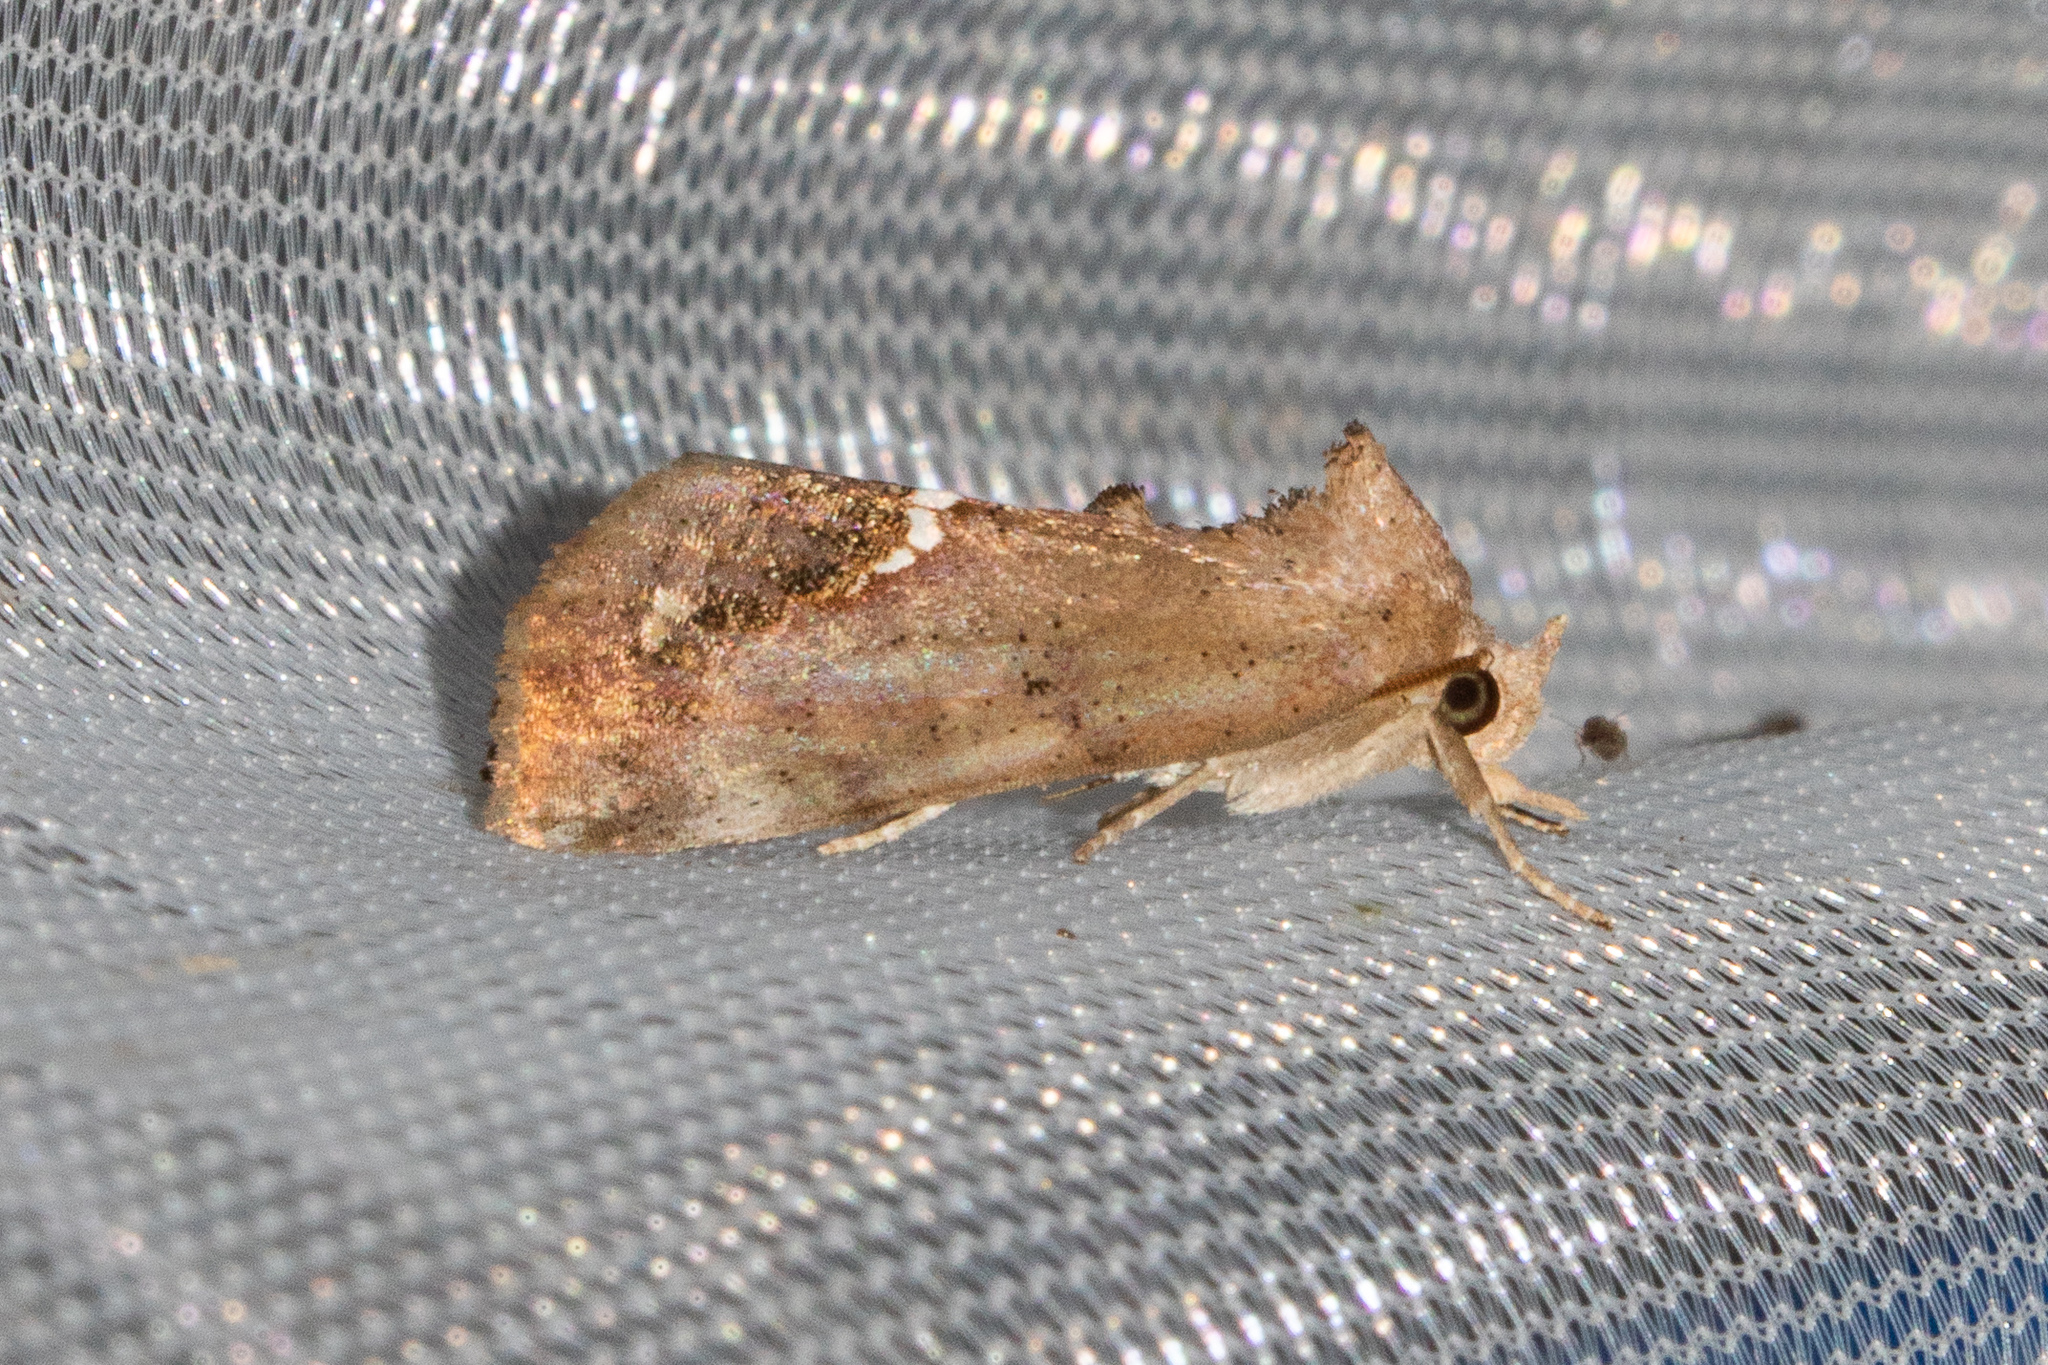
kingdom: Animalia
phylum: Arthropoda
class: Insecta
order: Lepidoptera
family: Erebidae
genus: Hypsoropha
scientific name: Hypsoropha hormos
